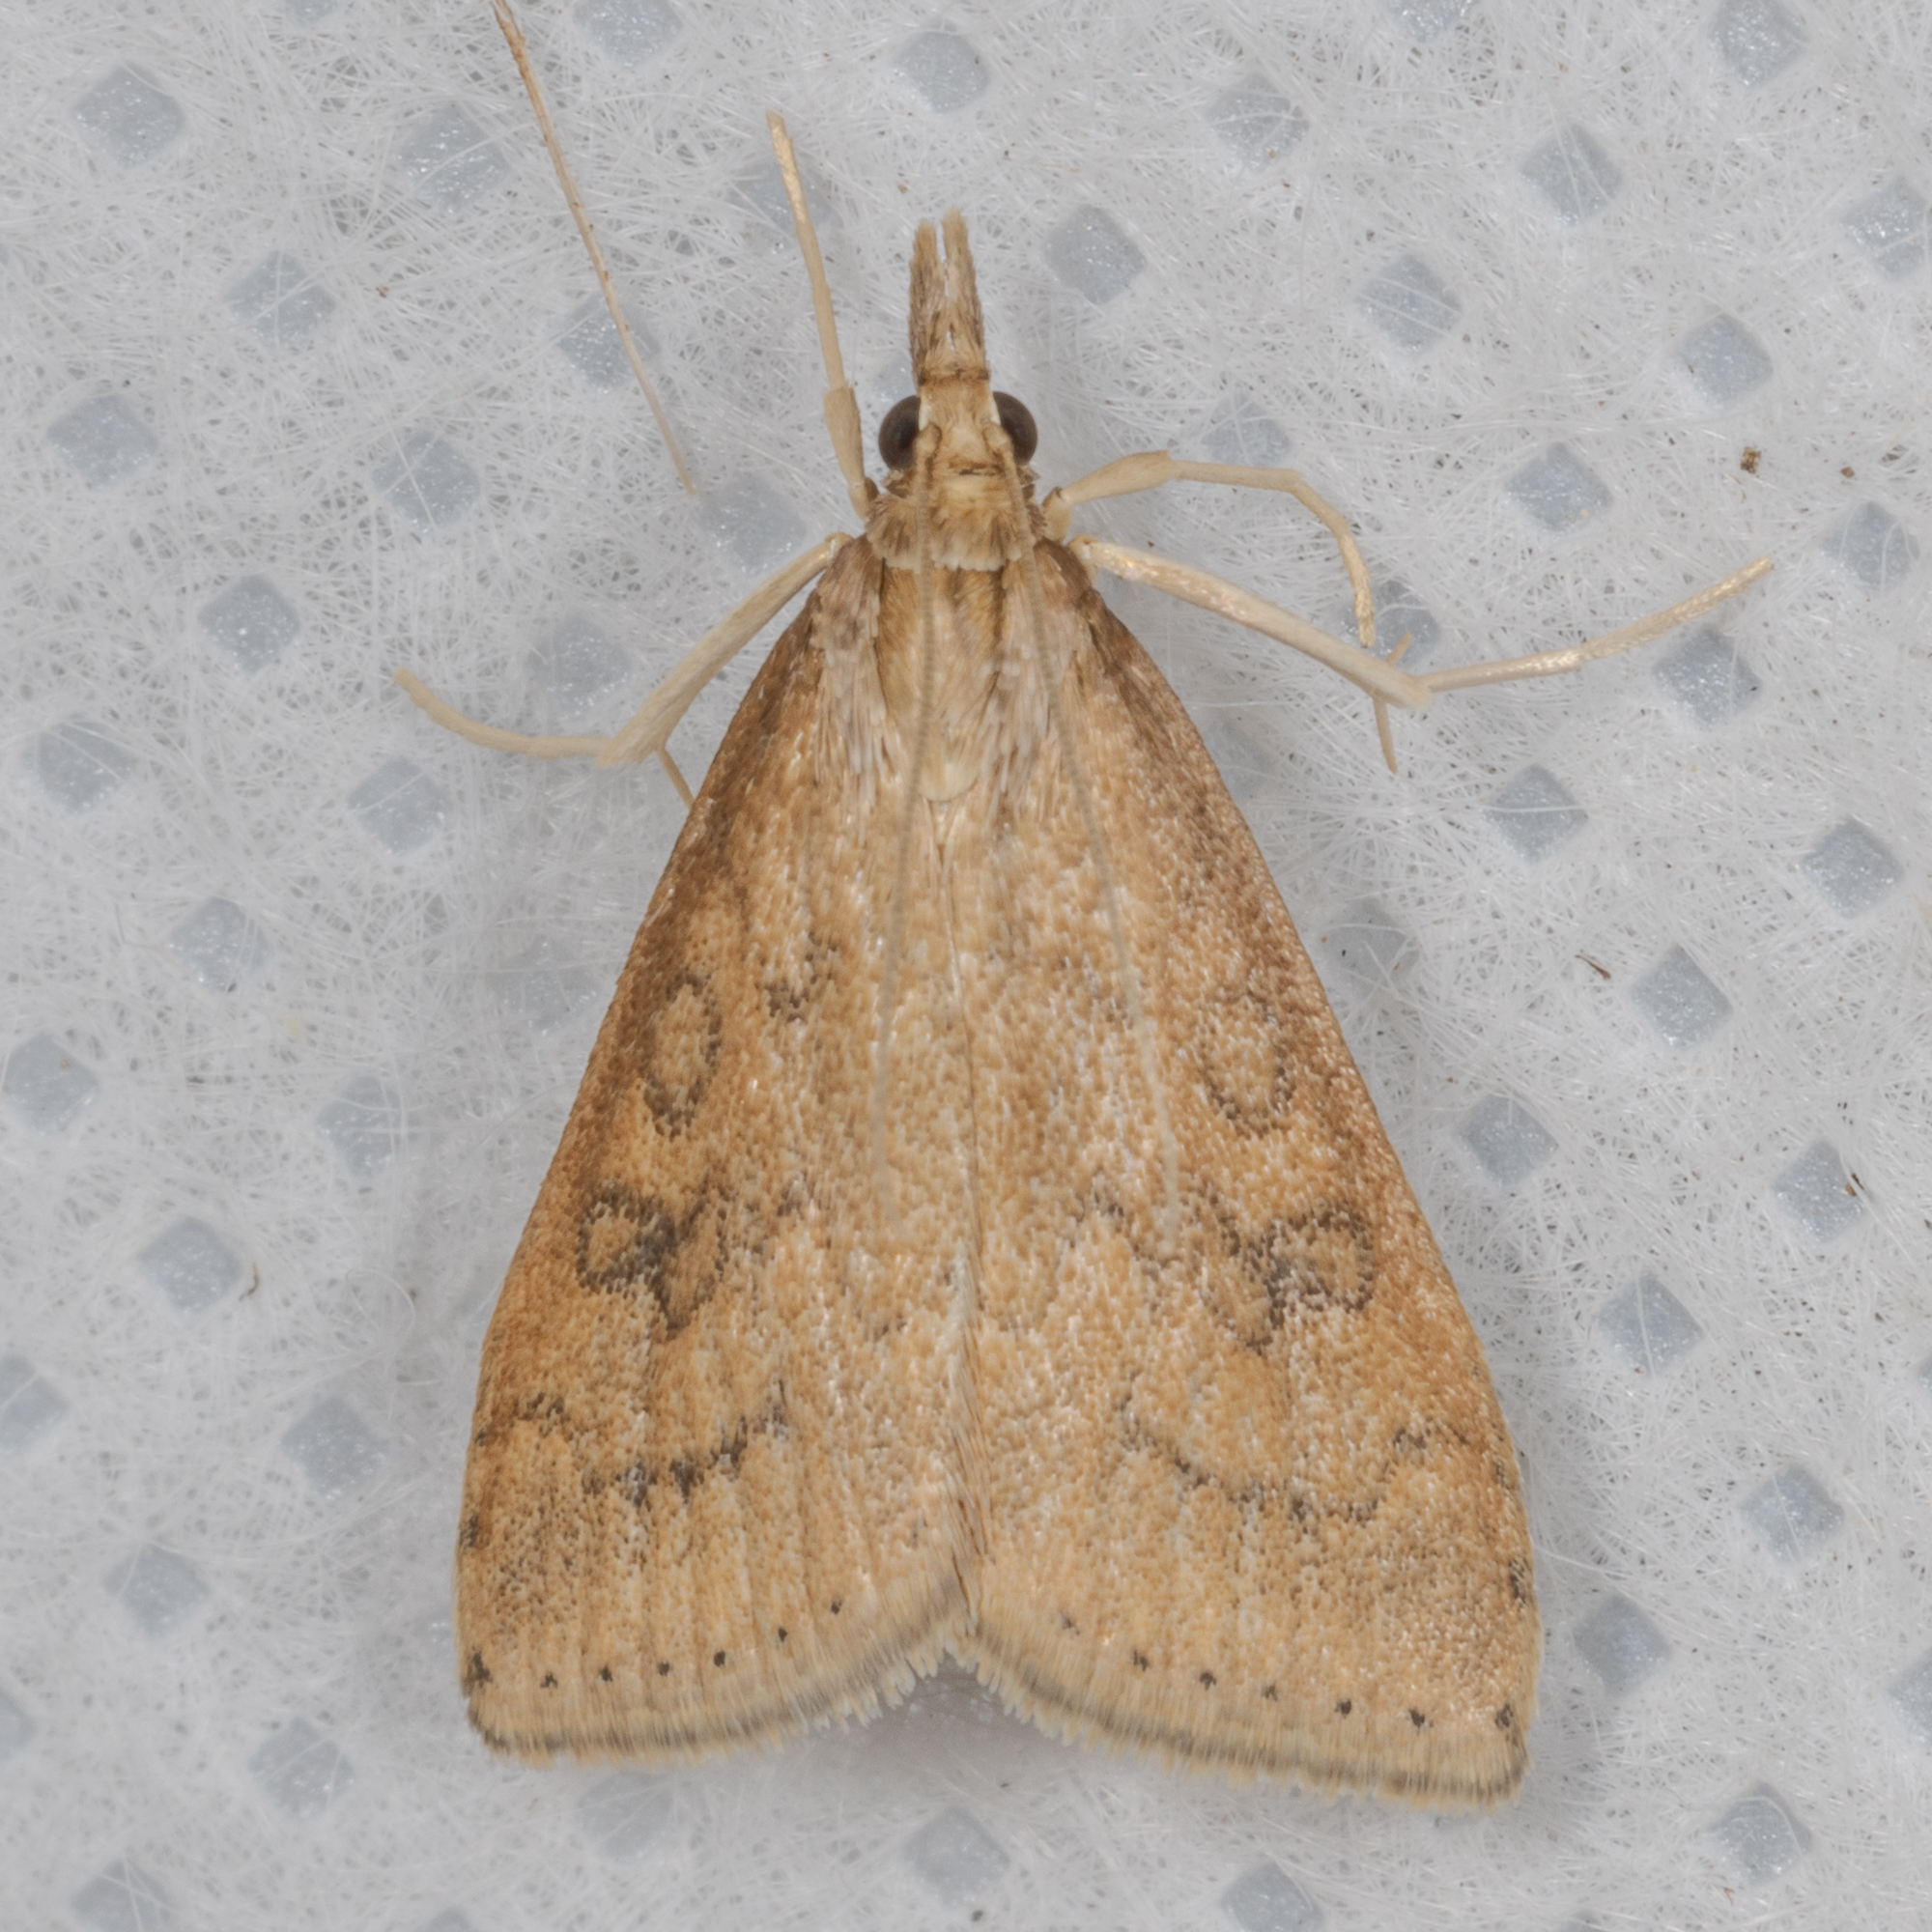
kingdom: Animalia
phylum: Arthropoda
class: Insecta
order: Lepidoptera
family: Crambidae
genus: Udea
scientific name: Udea rubigalis
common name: Celery leaftier moth
